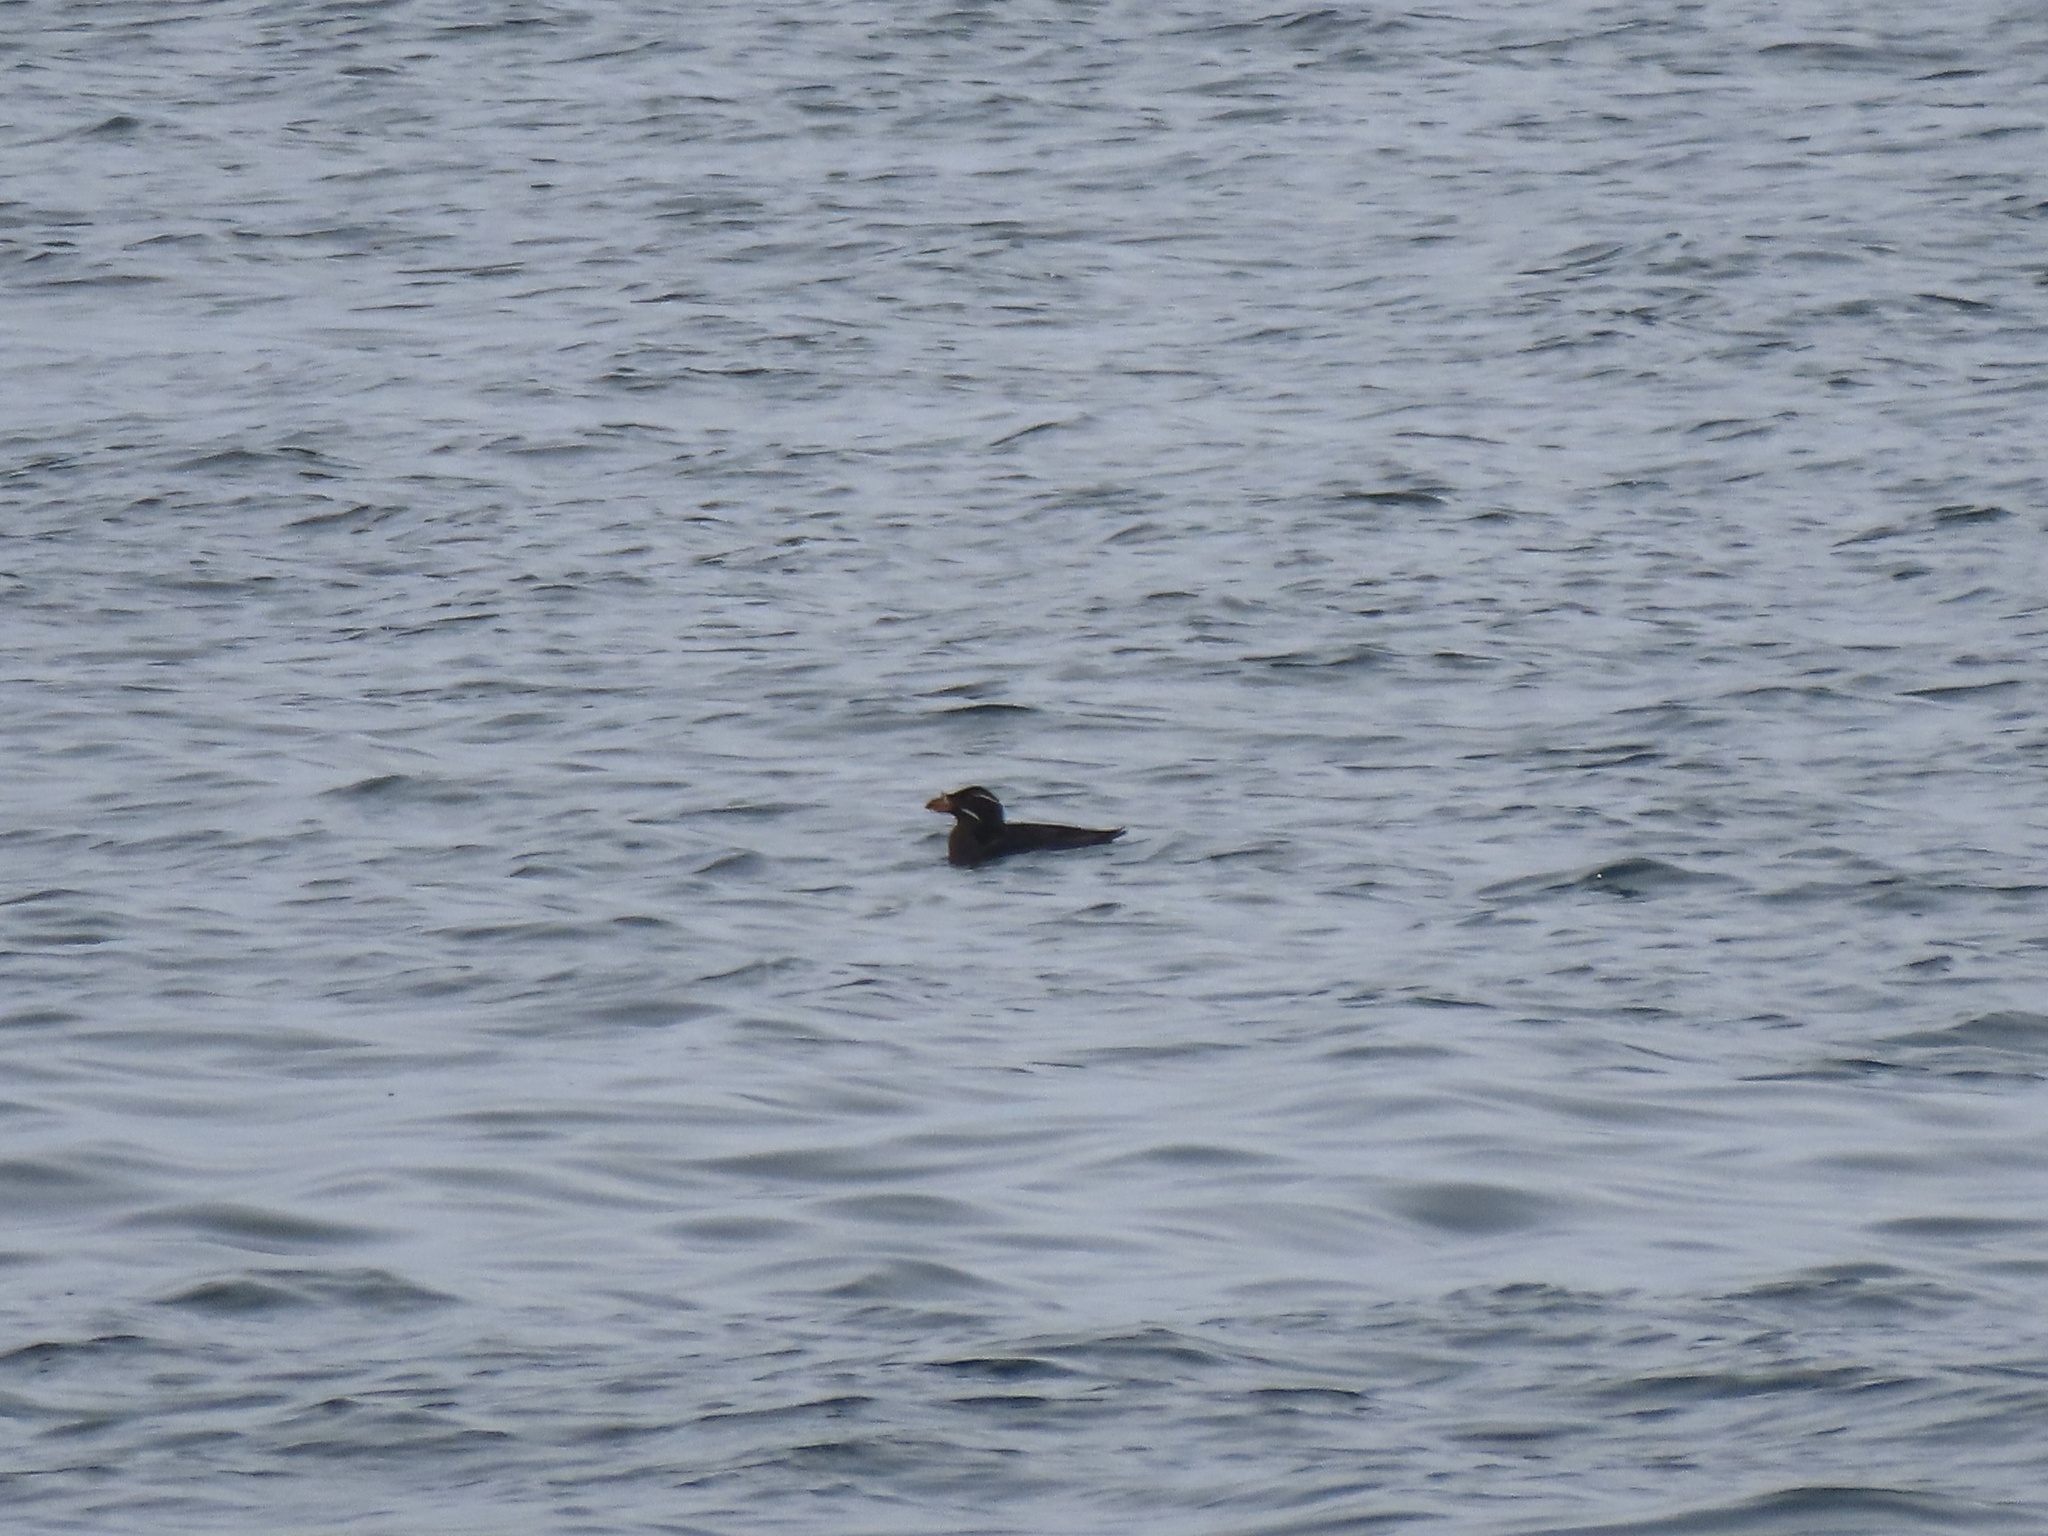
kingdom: Animalia
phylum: Chordata
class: Aves
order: Charadriiformes
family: Alcidae
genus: Cerorhinca
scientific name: Cerorhinca monocerata
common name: Rhinoceros auklet
